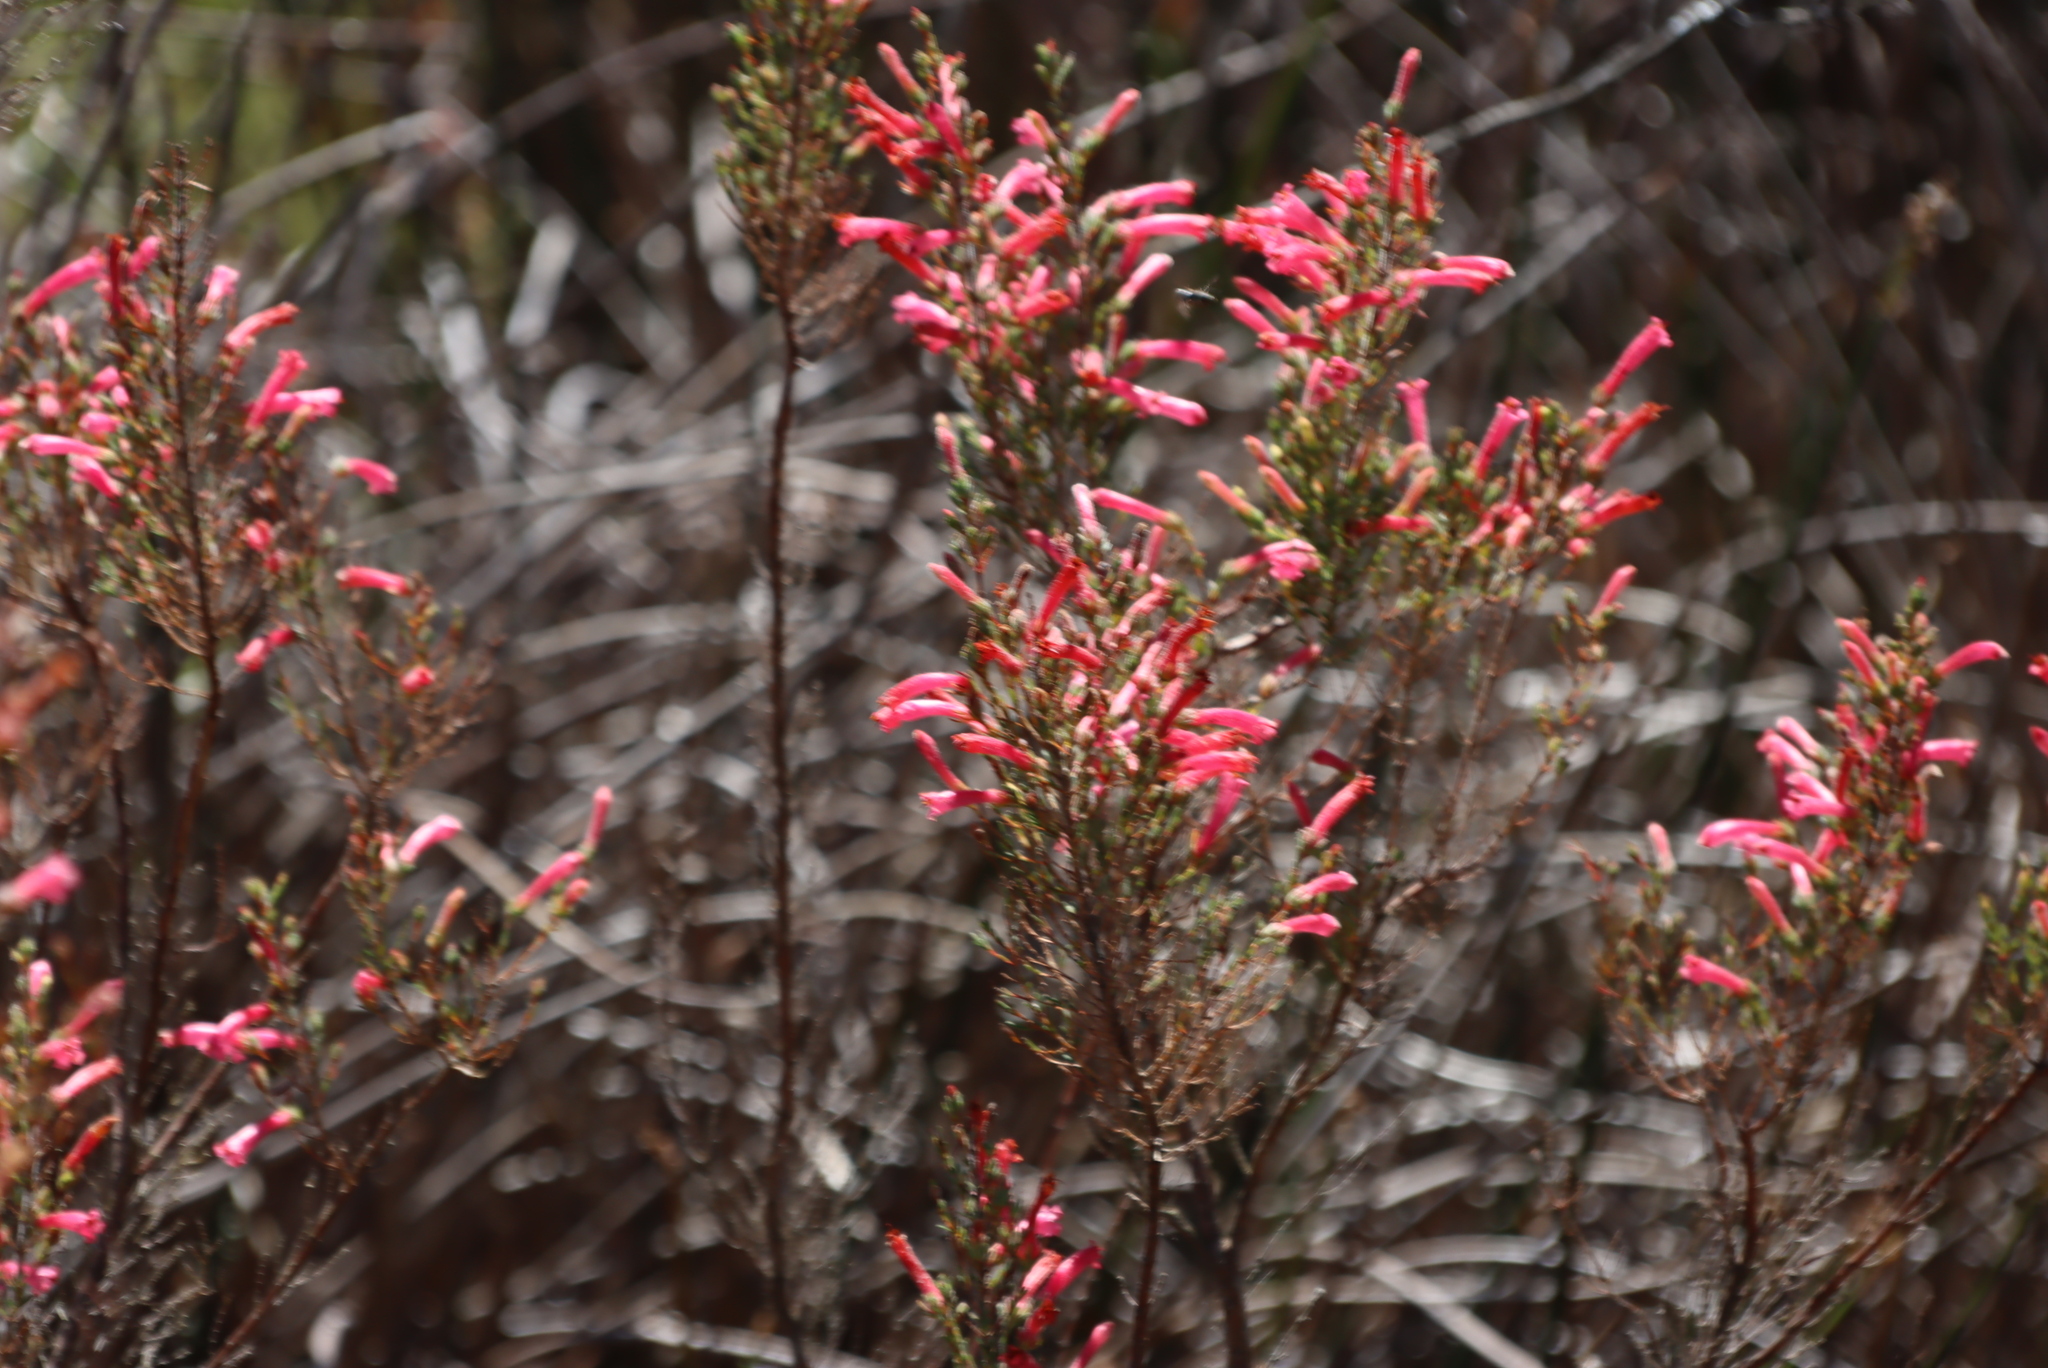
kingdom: Plantae
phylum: Tracheophyta
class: Magnoliopsida
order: Ericales
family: Ericaceae
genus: Erica
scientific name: Erica curviflora
